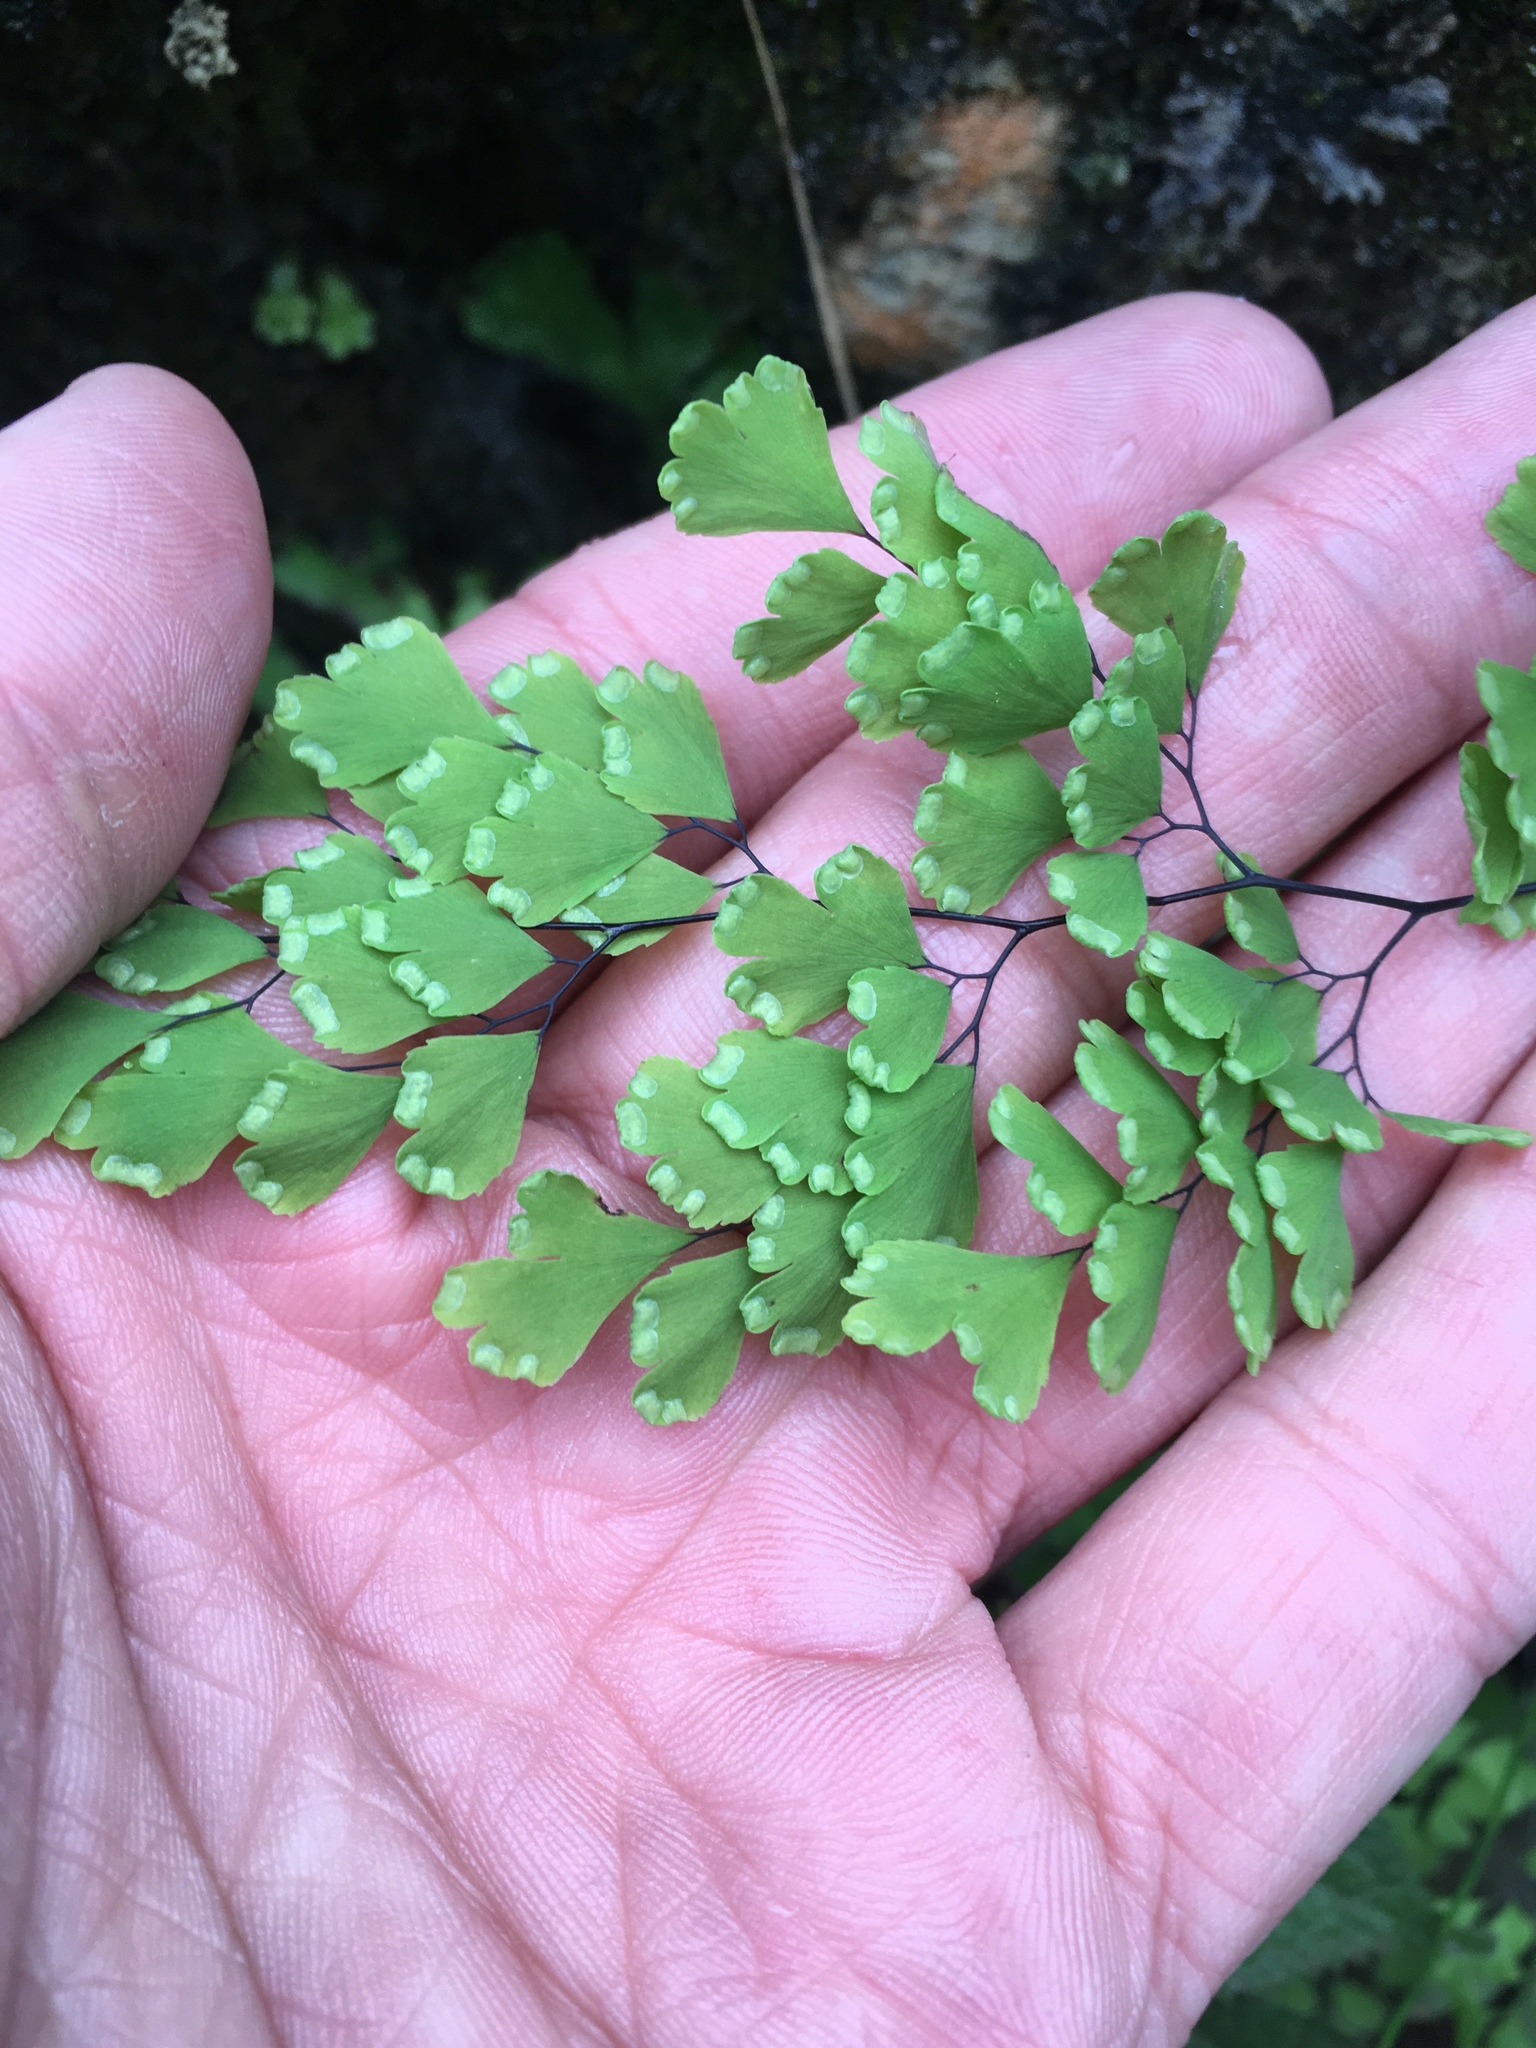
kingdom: Plantae
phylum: Tracheophyta
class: Polypodiopsida
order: Polypodiales
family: Pteridaceae
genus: Adiantum
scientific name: Adiantum capillus-veneris
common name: Maidenhair fern
